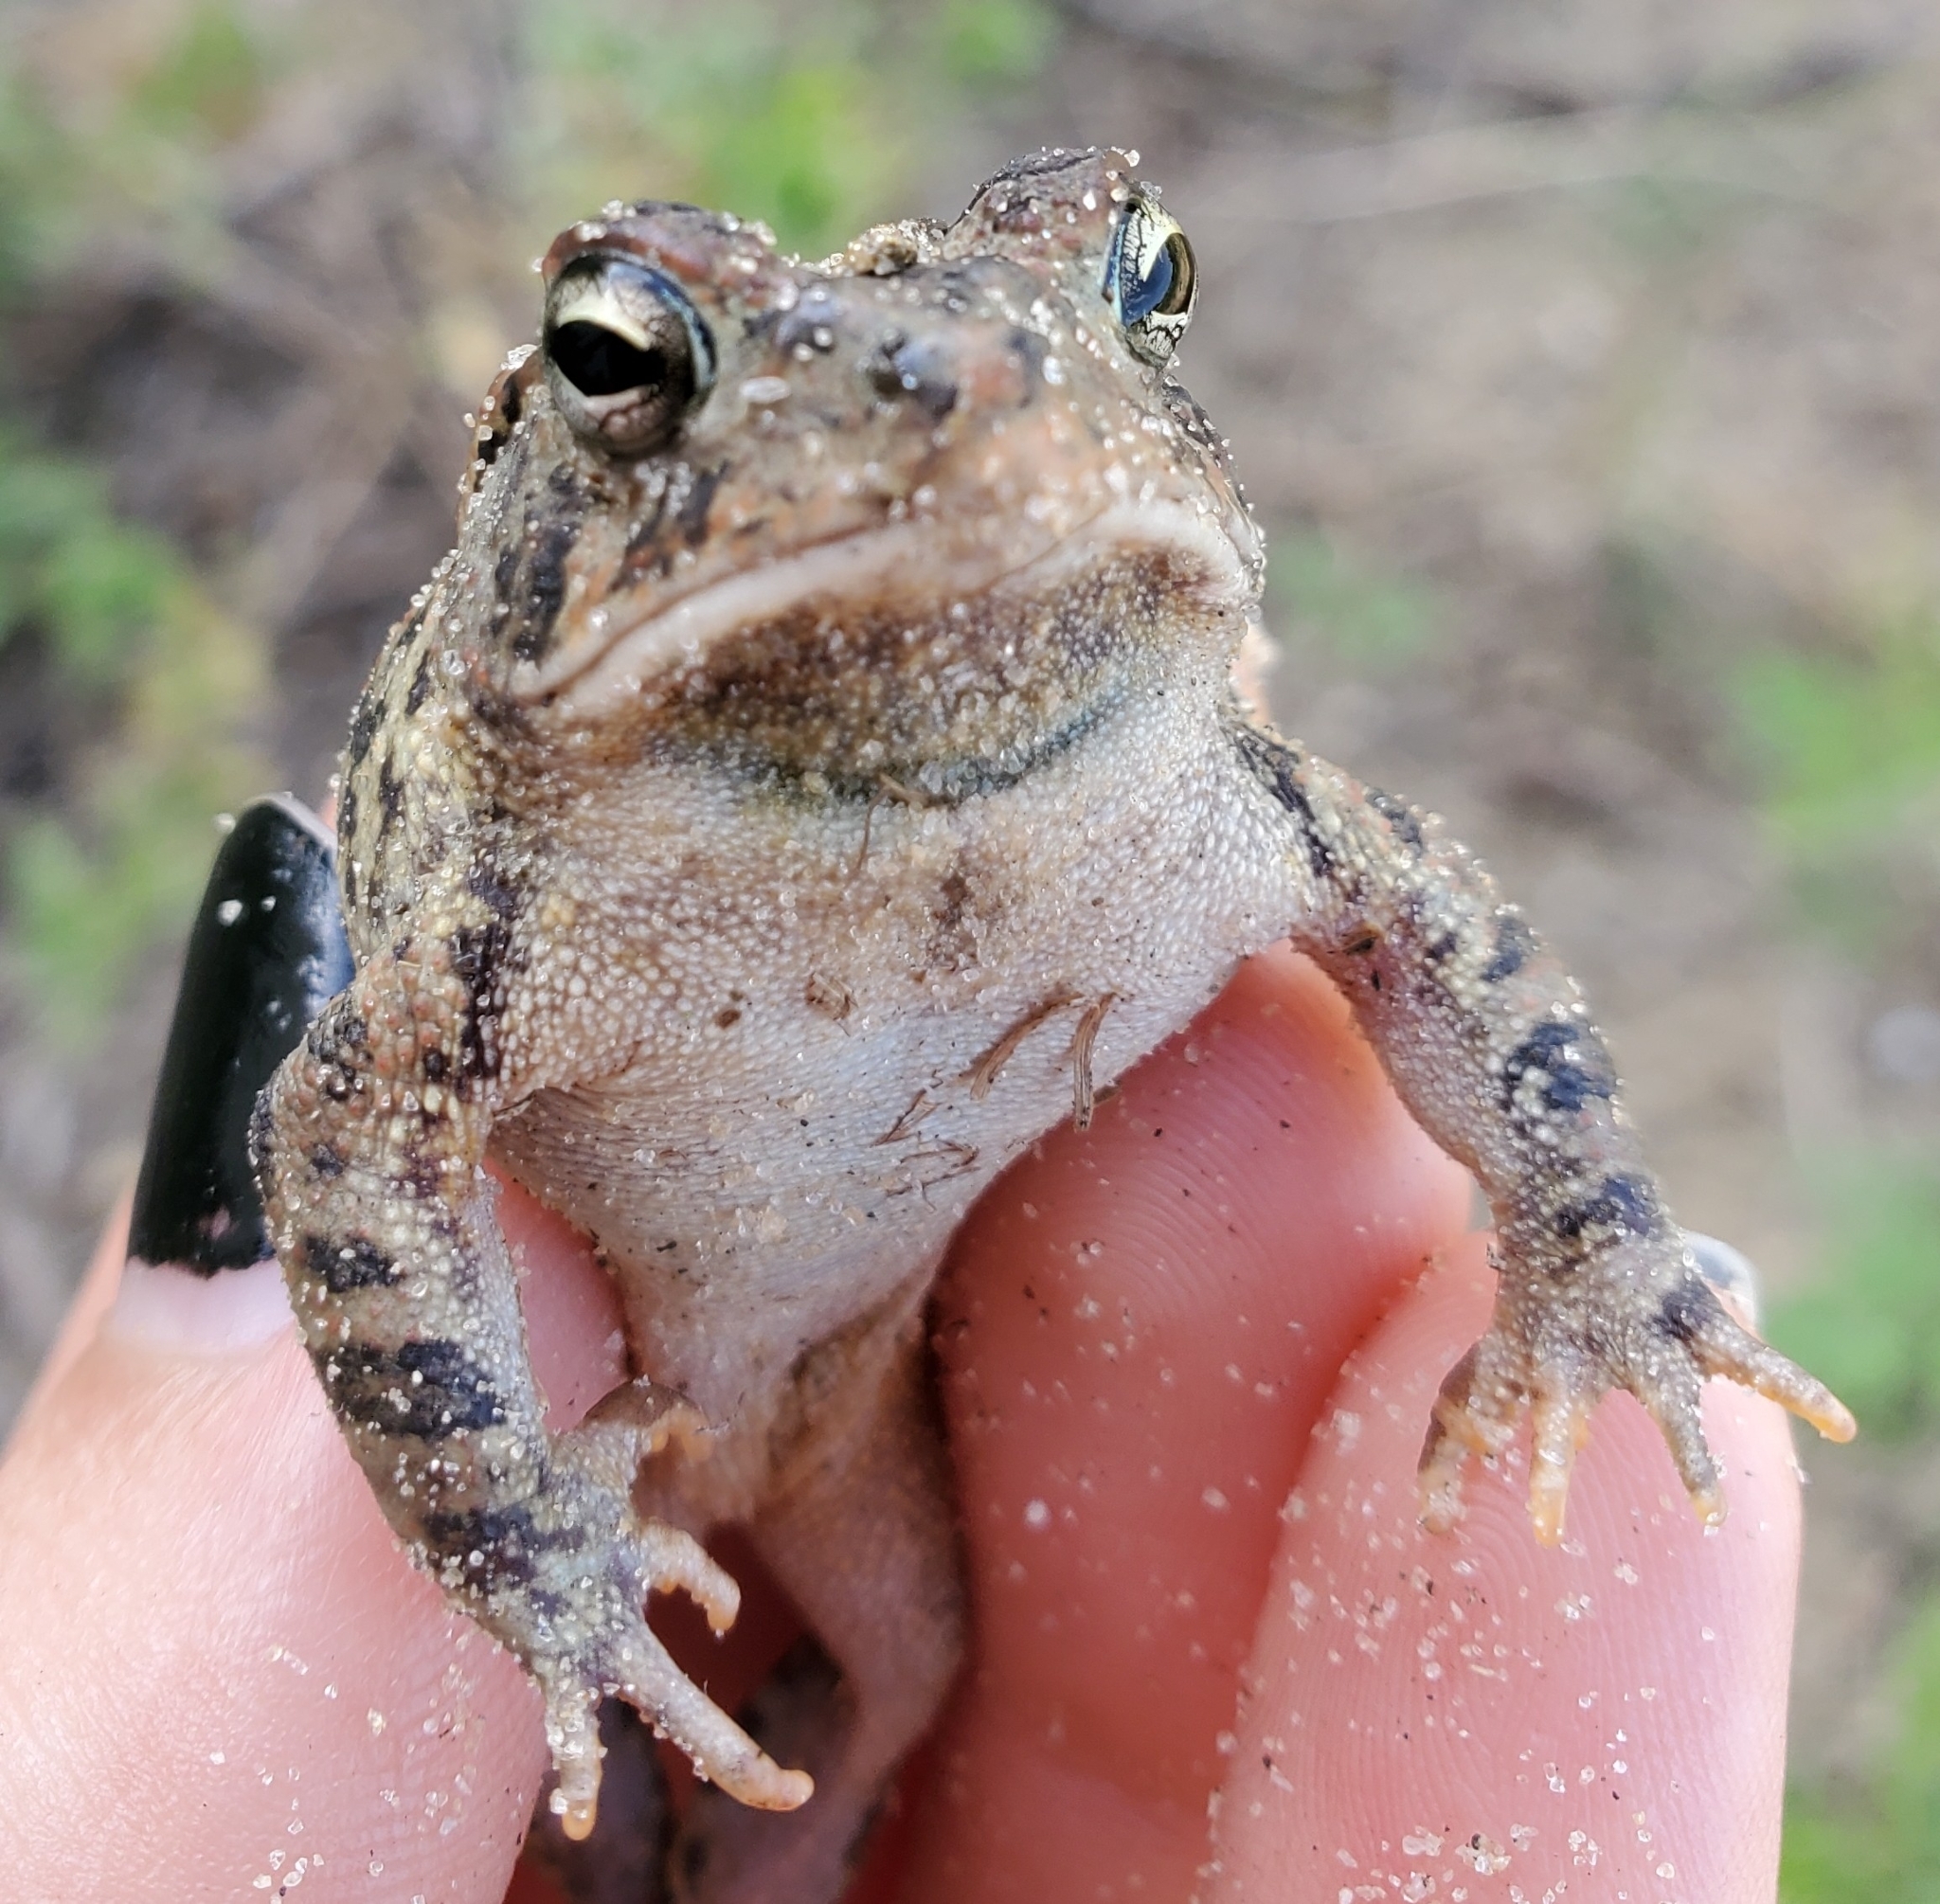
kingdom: Animalia
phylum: Chordata
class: Amphibia
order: Anura
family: Bufonidae
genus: Anaxyrus
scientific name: Anaxyrus terrestris
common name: Southern toad
